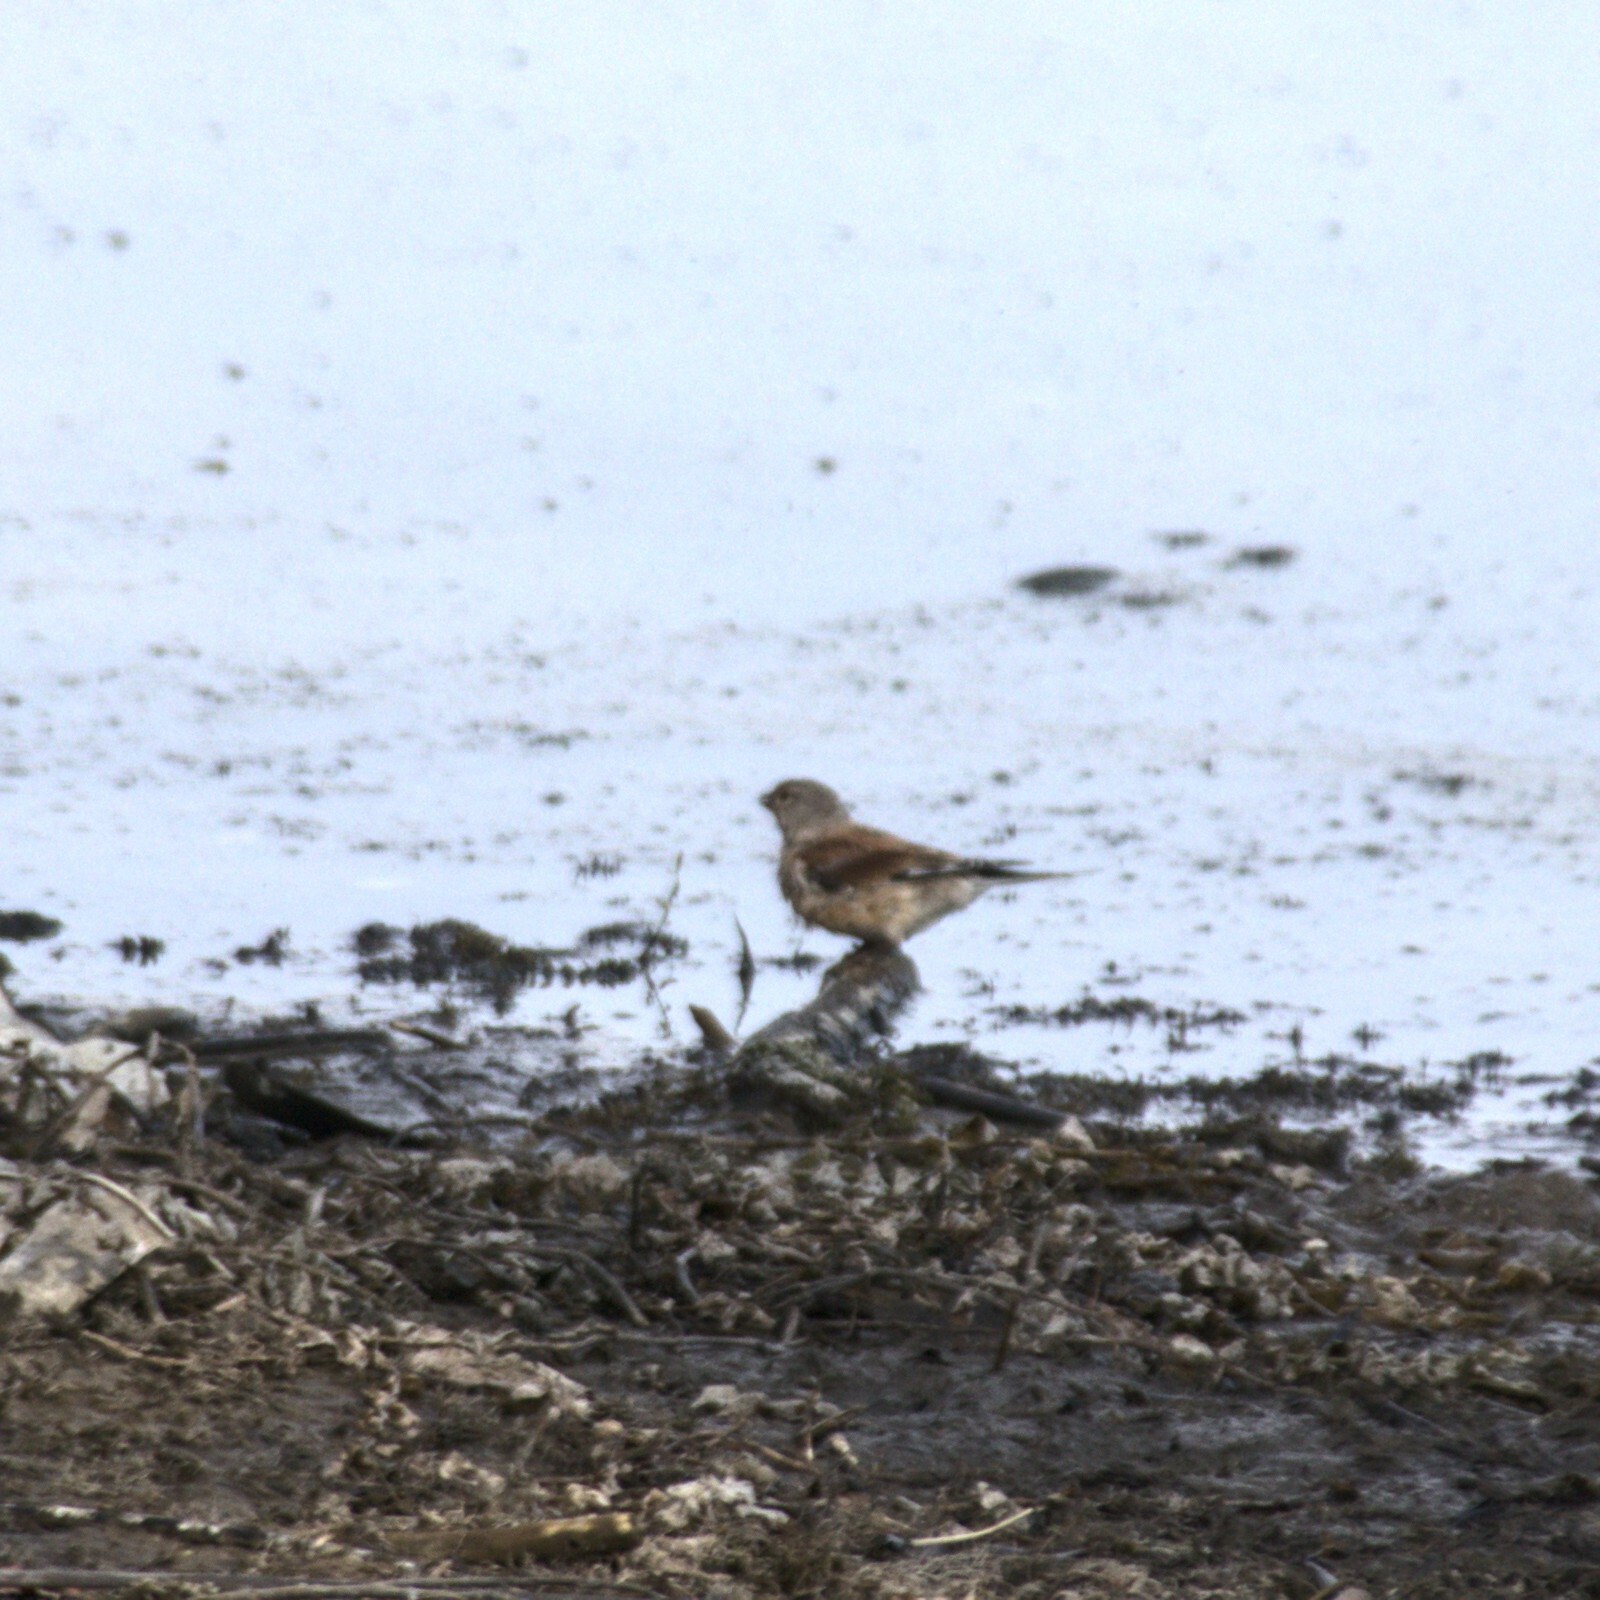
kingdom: Animalia
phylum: Chordata
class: Aves
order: Passeriformes
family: Fringillidae
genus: Linaria
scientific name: Linaria cannabina
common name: Common linnet
